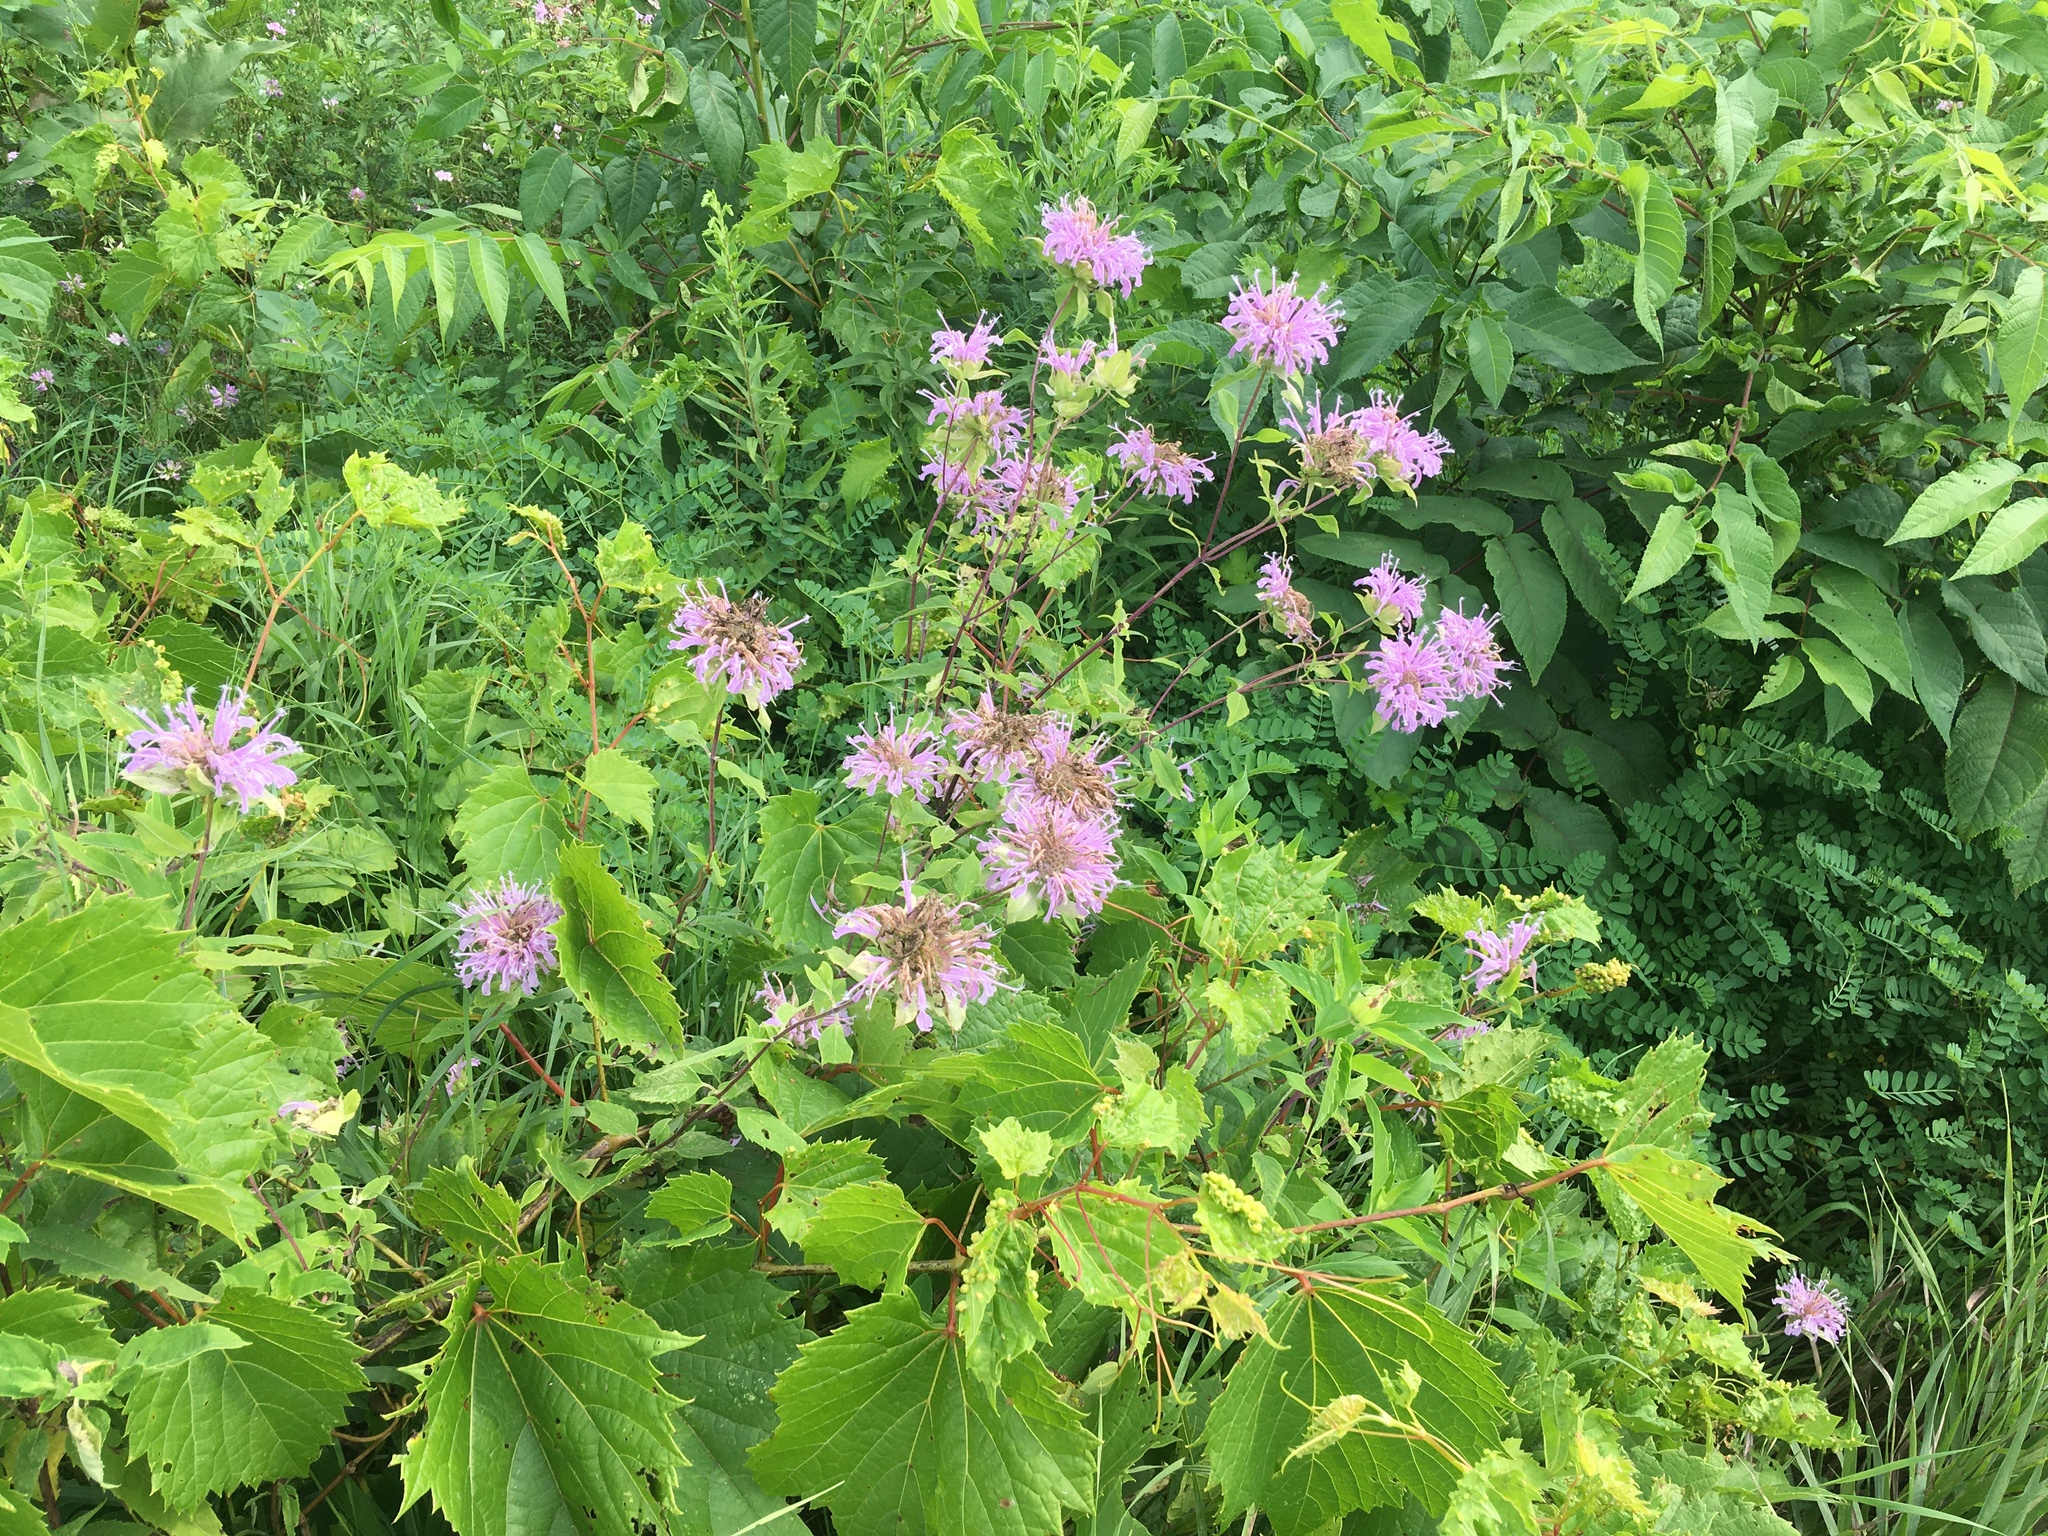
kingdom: Plantae
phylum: Tracheophyta
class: Magnoliopsida
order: Lamiales
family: Lamiaceae
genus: Monarda
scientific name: Monarda fistulosa
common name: Purple beebalm
